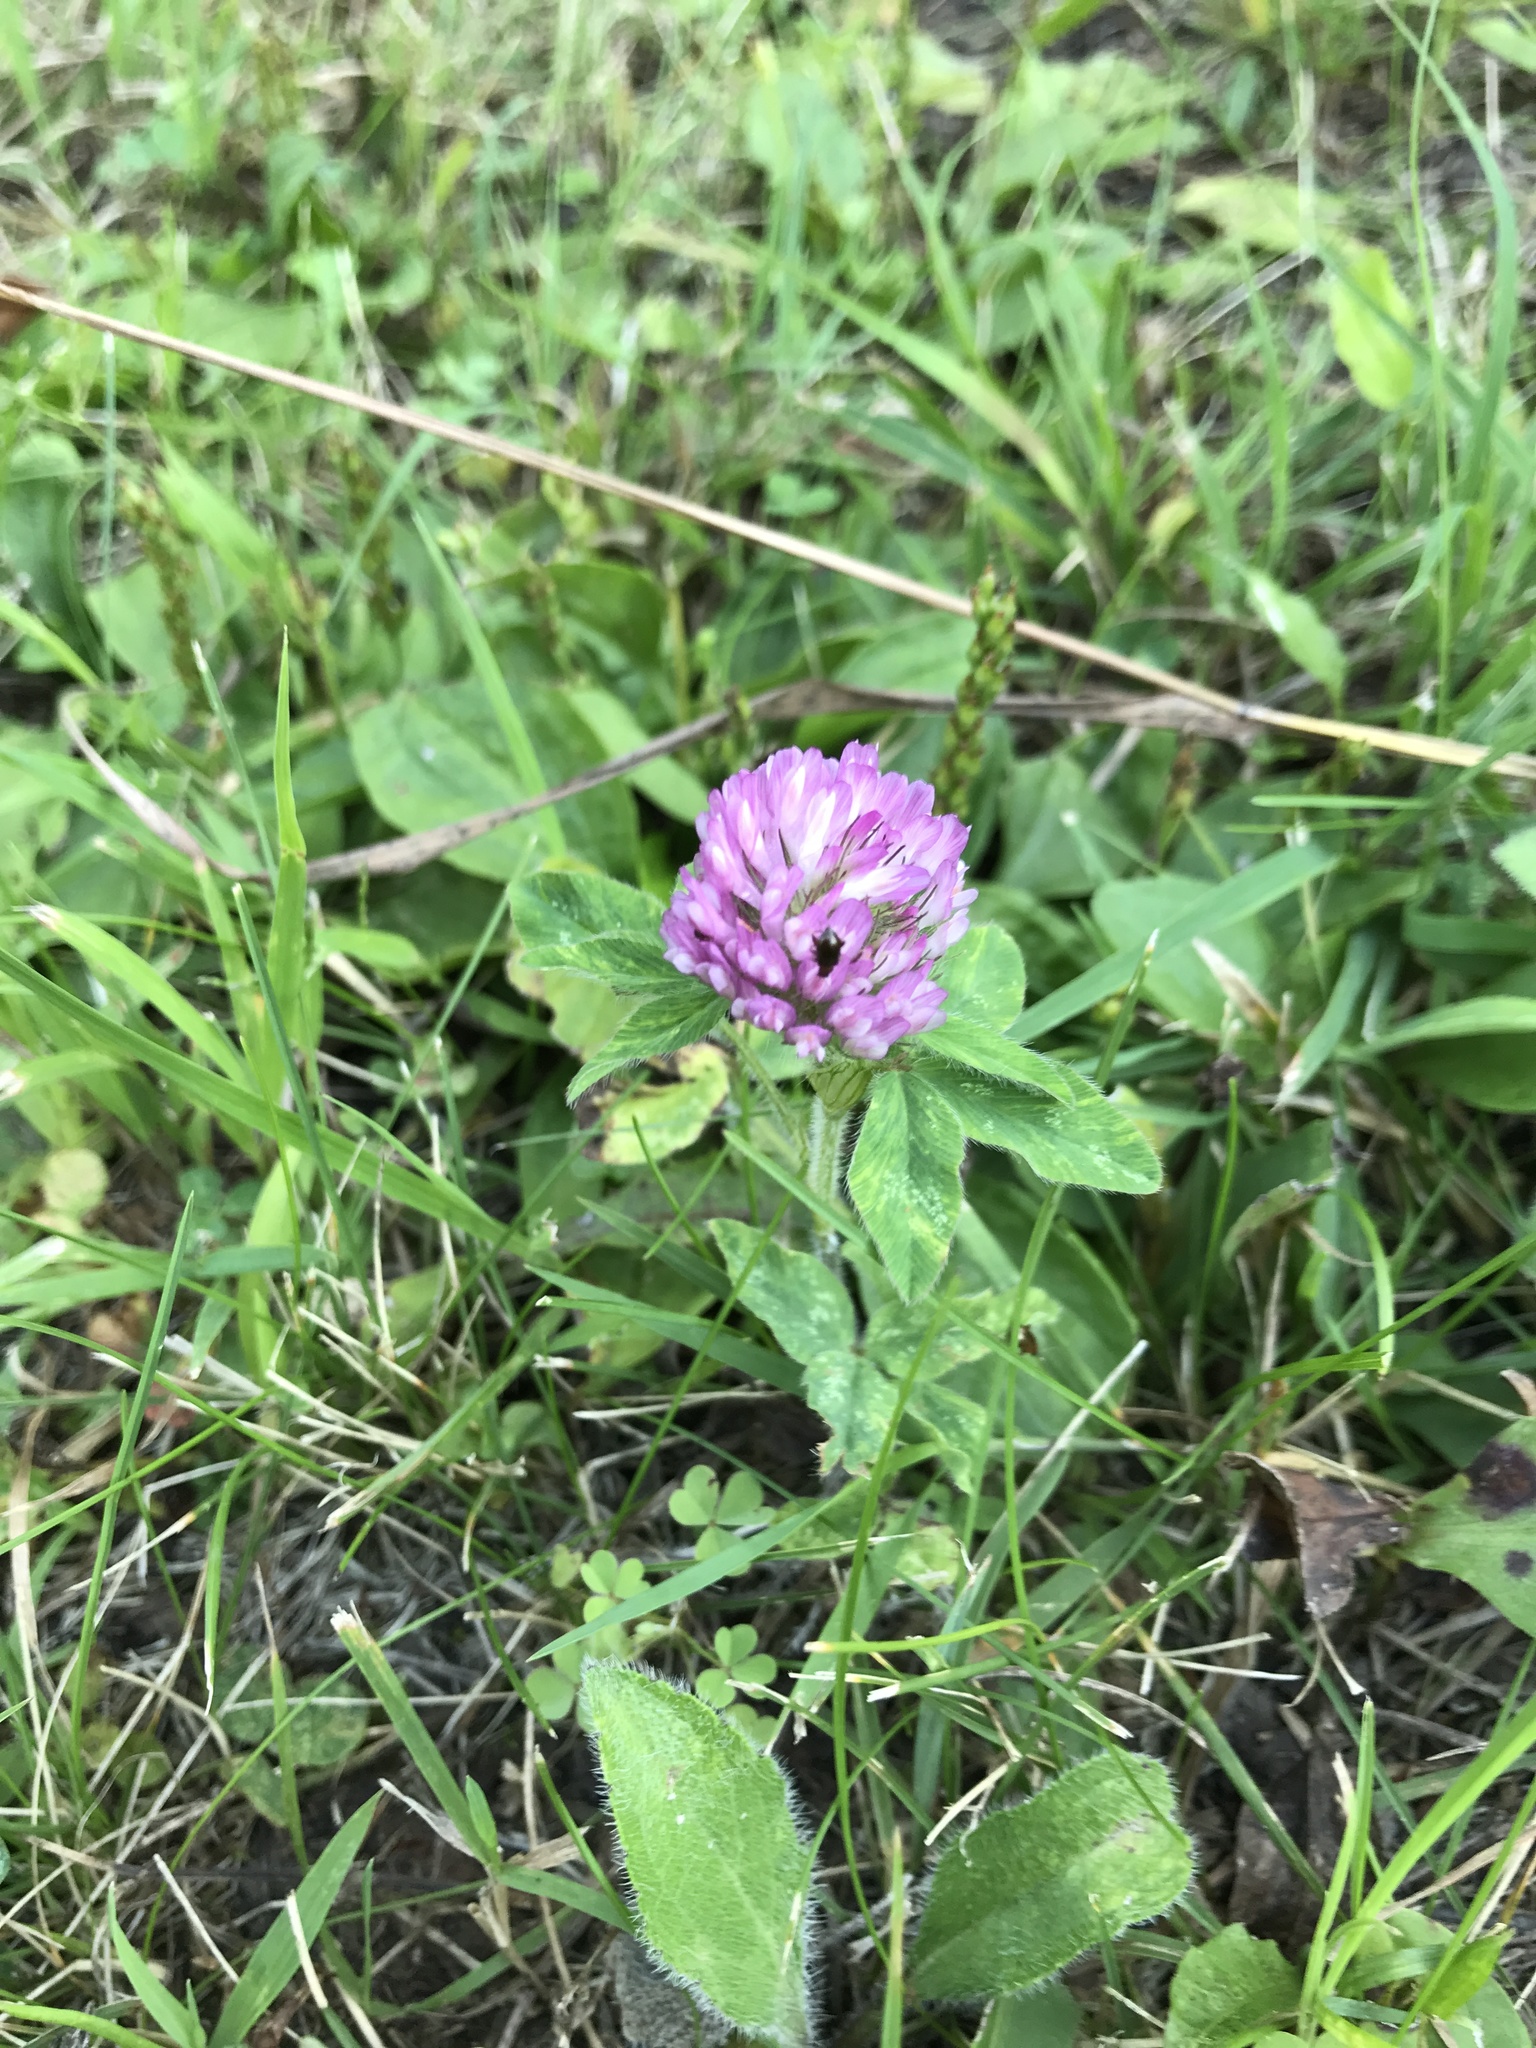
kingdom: Plantae
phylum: Tracheophyta
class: Magnoliopsida
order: Fabales
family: Fabaceae
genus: Trifolium
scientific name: Trifolium pratense
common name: Red clover
